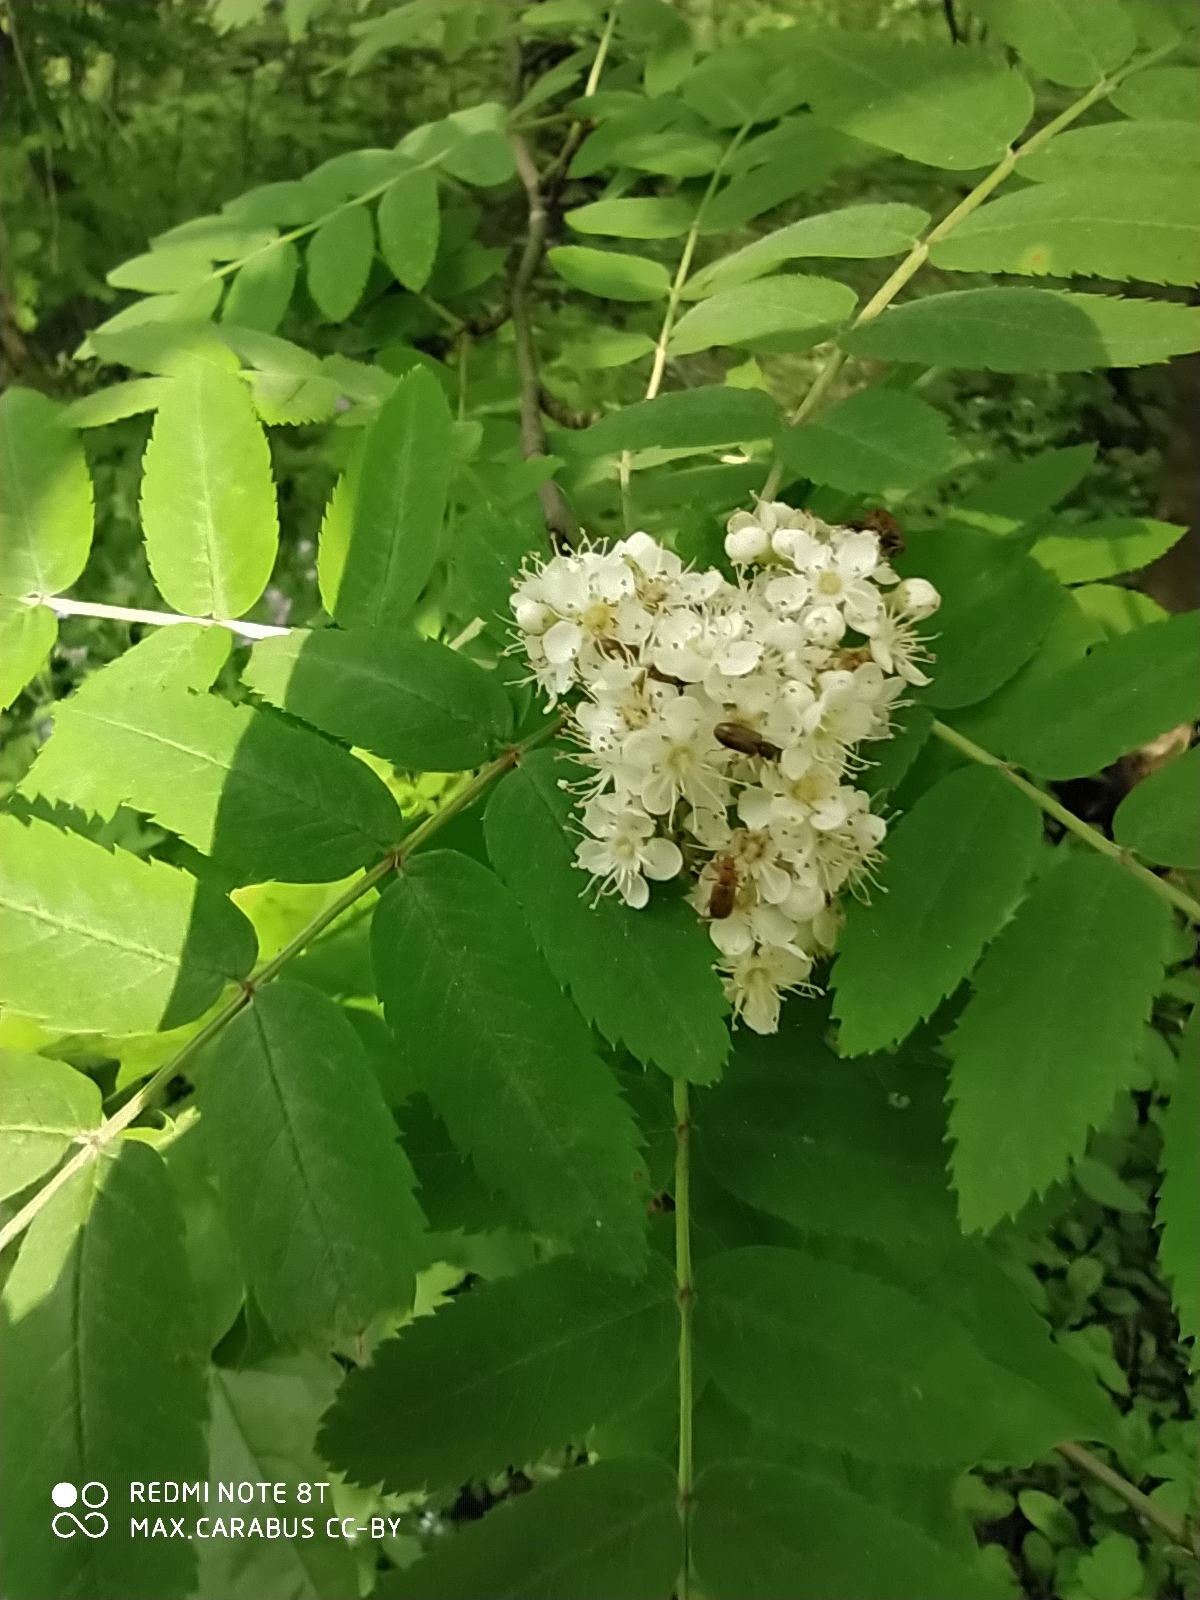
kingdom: Plantae
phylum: Tracheophyta
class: Magnoliopsida
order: Rosales
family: Rosaceae
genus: Sorbus
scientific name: Sorbus aucuparia
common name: Rowan
